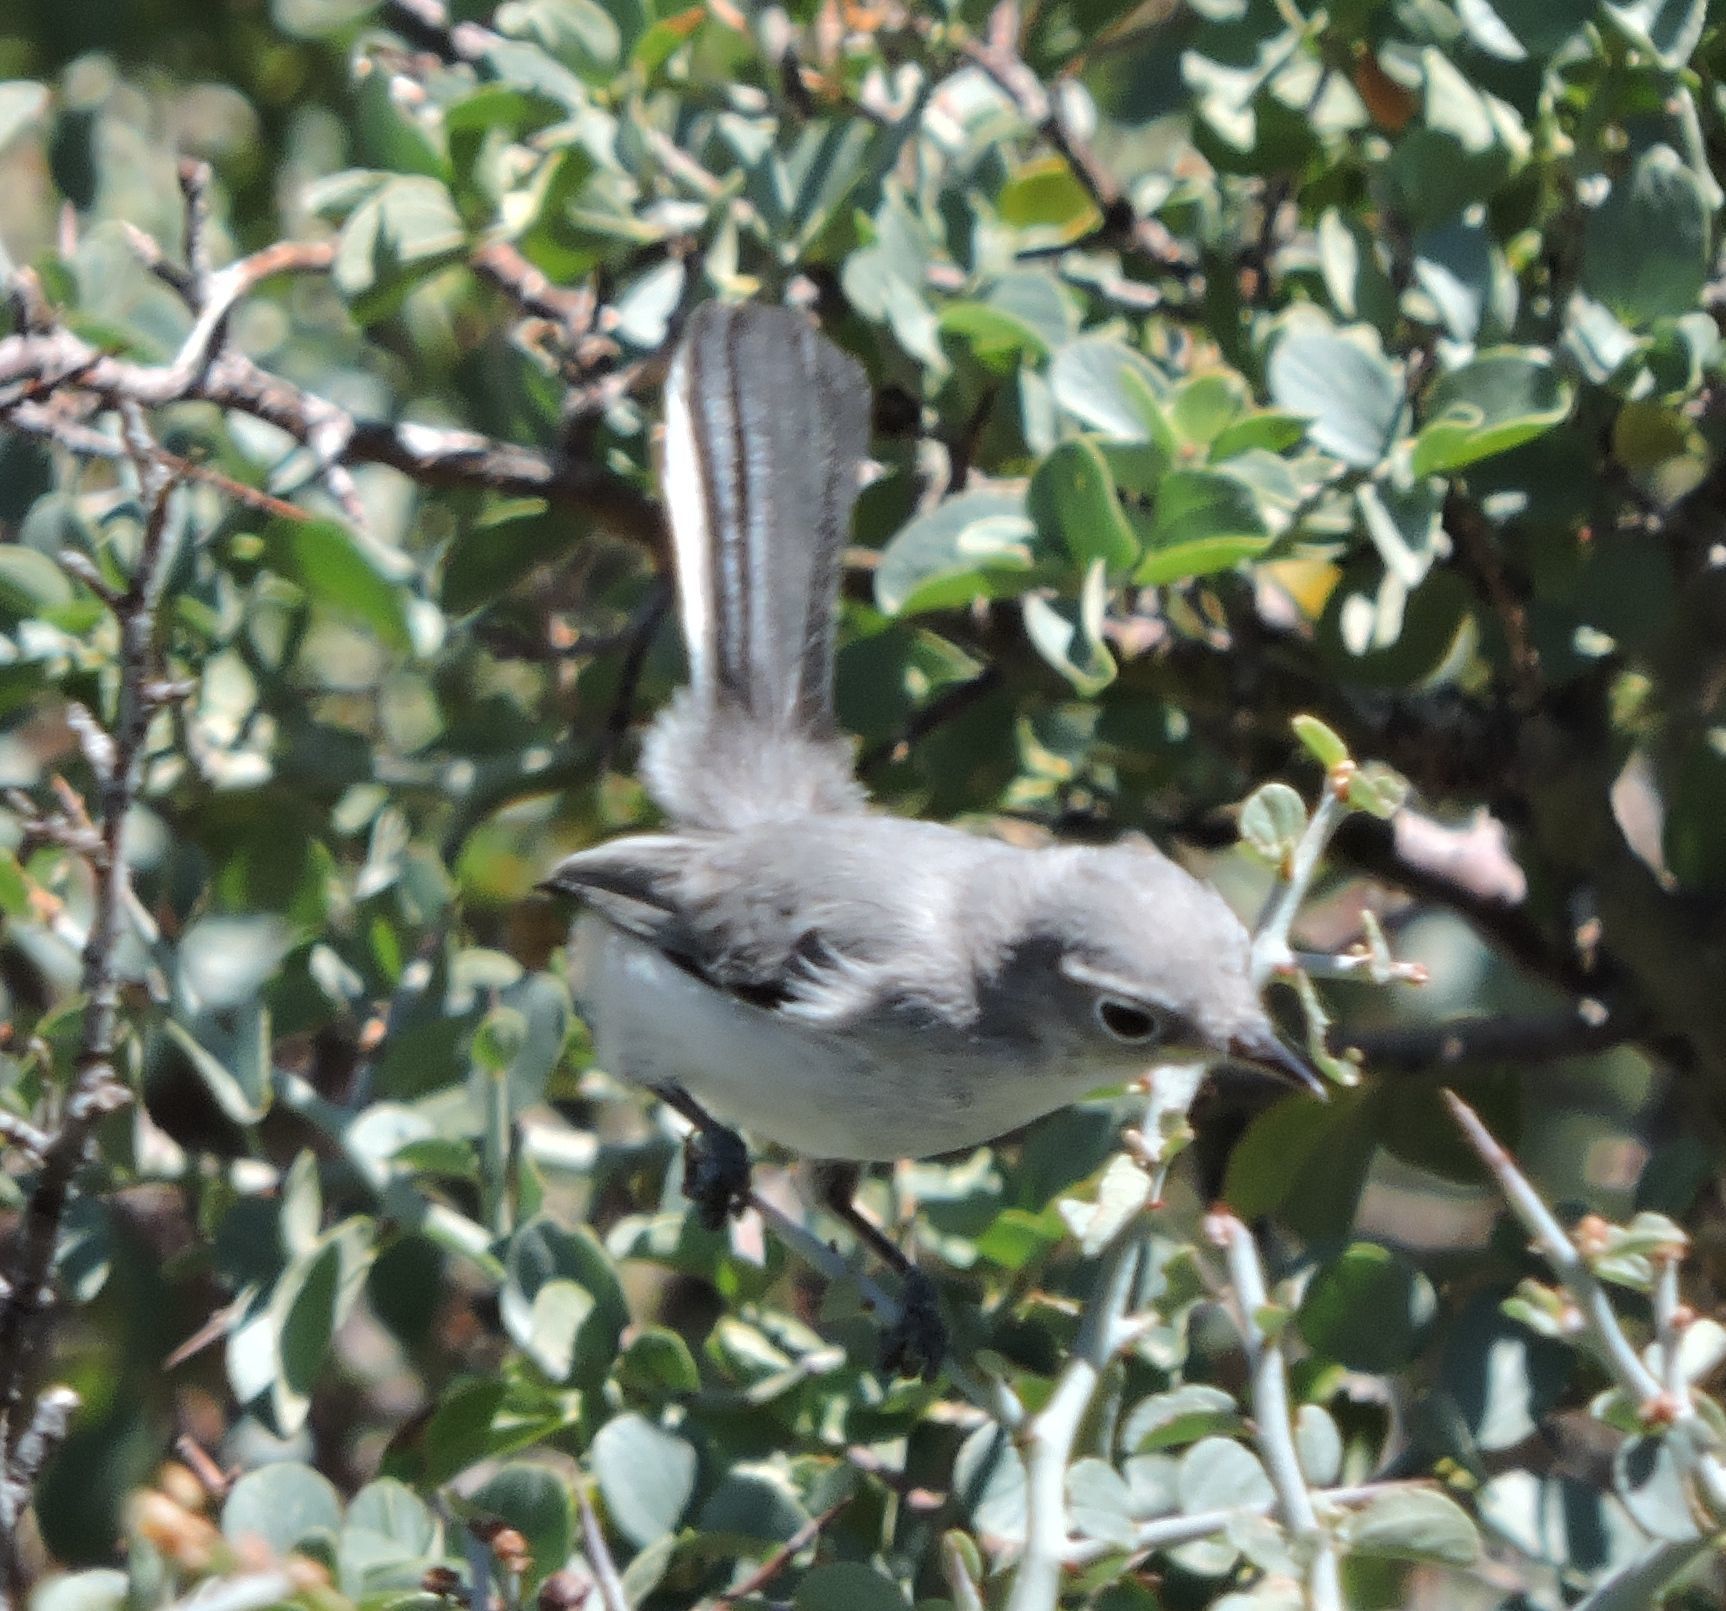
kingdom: Animalia
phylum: Chordata
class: Aves
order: Passeriformes
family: Polioptilidae
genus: Polioptila
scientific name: Polioptila caerulea
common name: Blue-gray gnatcatcher
